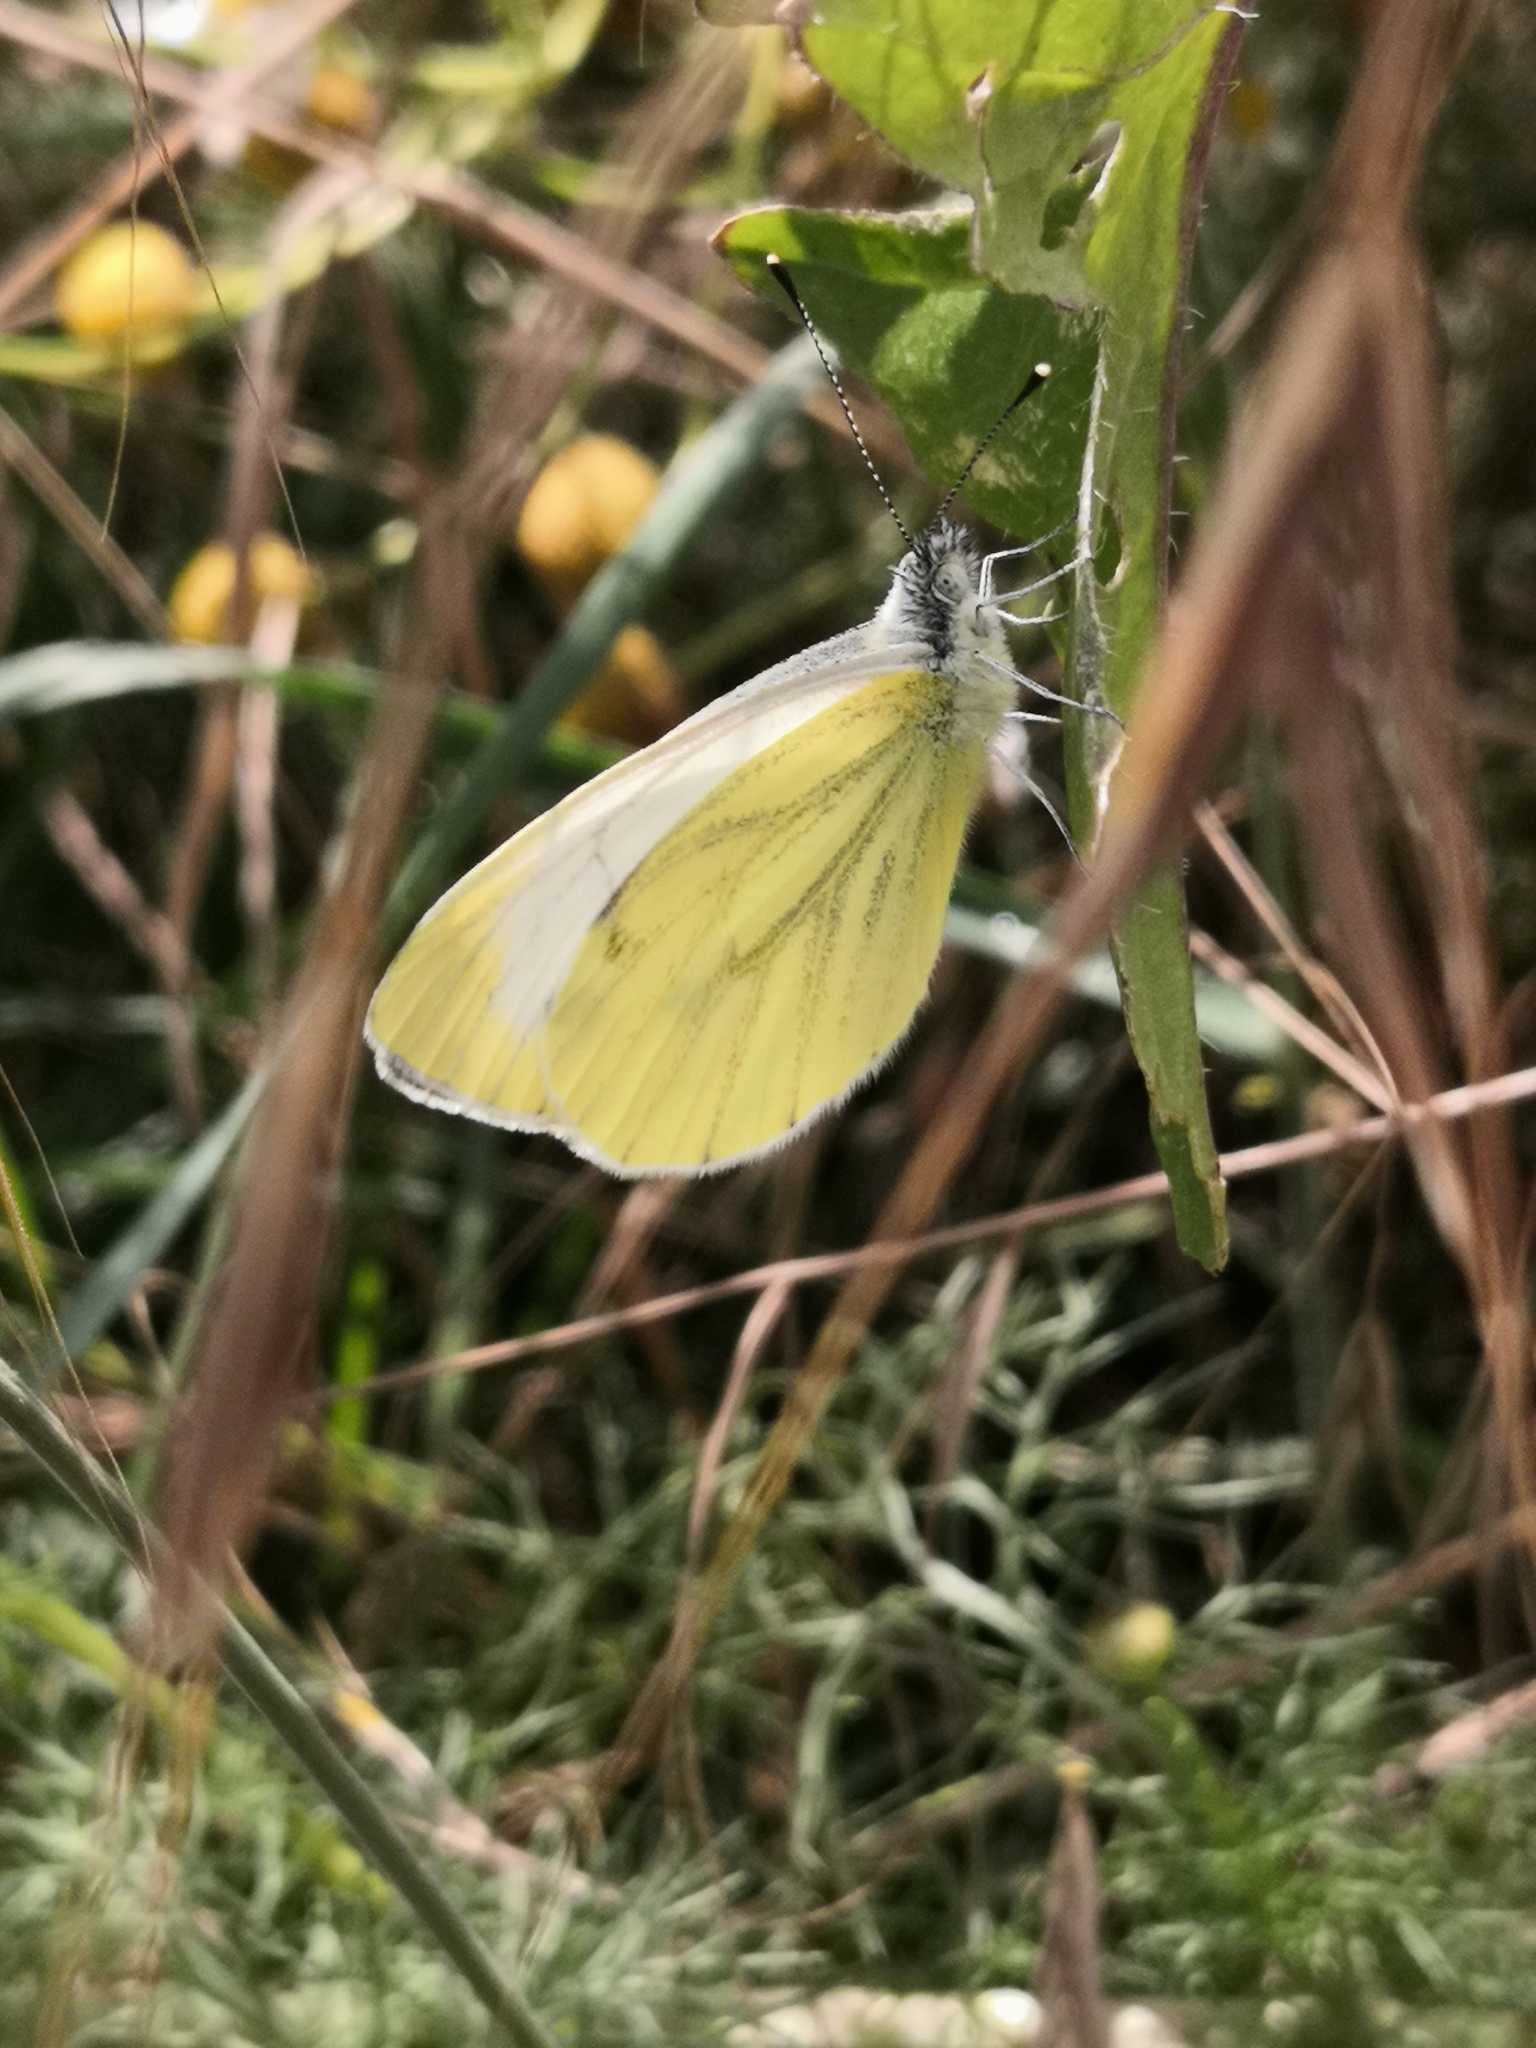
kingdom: Animalia
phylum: Arthropoda
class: Insecta
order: Lepidoptera
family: Pieridae
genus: Pieris
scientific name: Pieris napi
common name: Green-veined white
